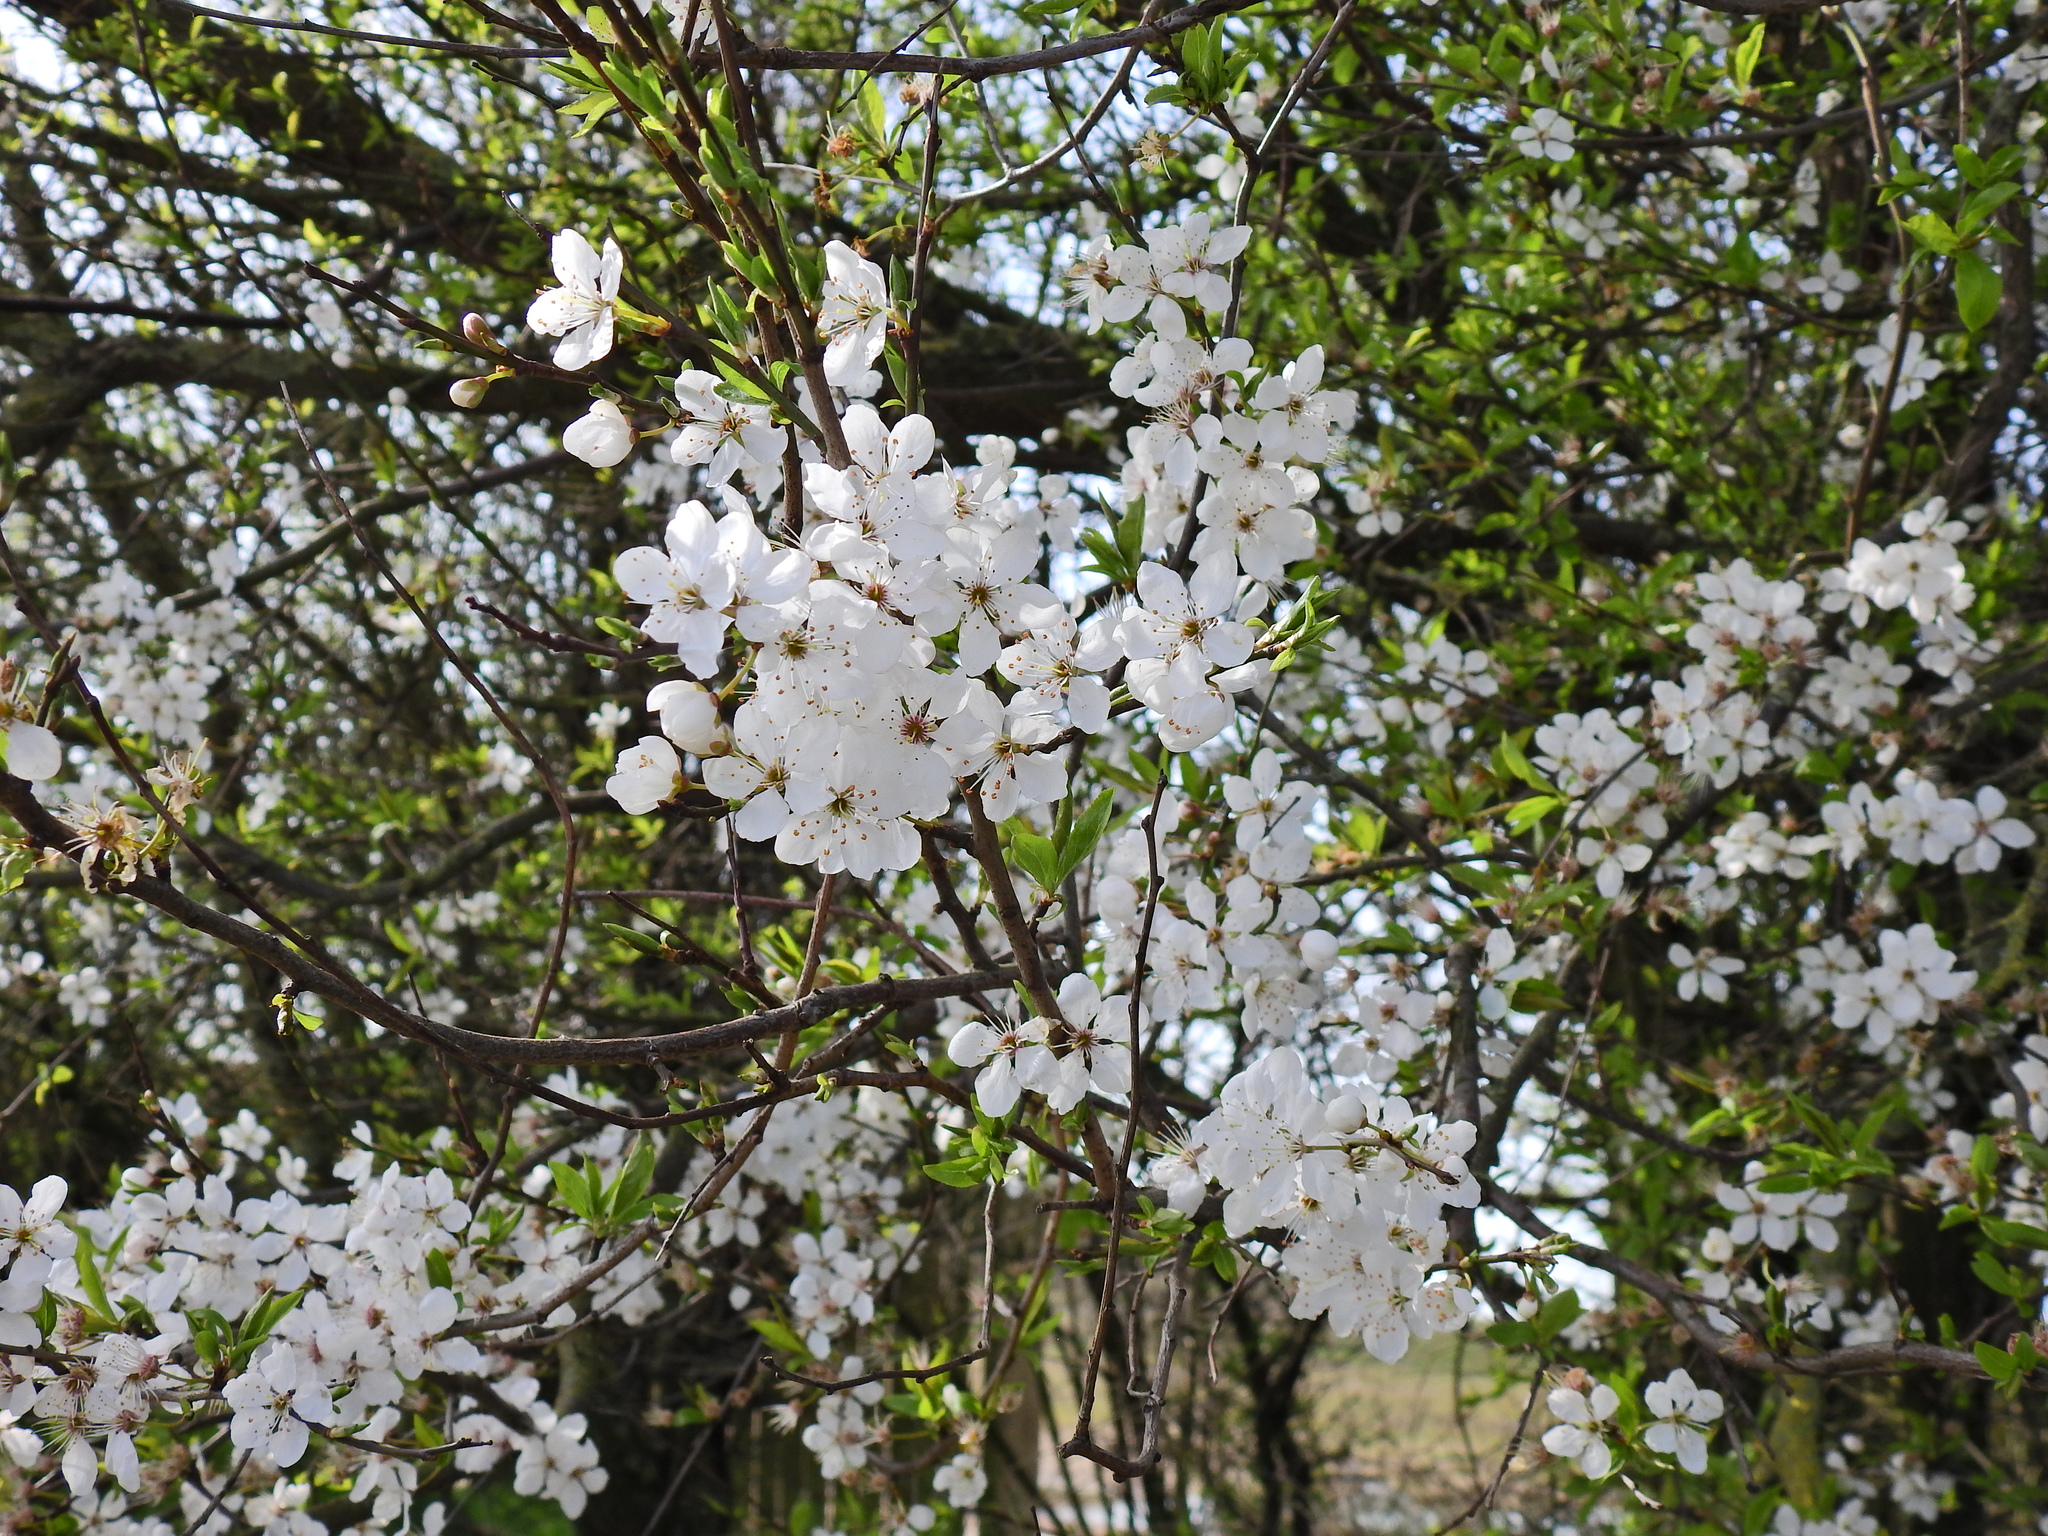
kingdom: Plantae
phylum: Tracheophyta
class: Magnoliopsida
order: Rosales
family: Rosaceae
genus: Prunus
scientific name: Prunus cerasifera
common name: Cherry plum
